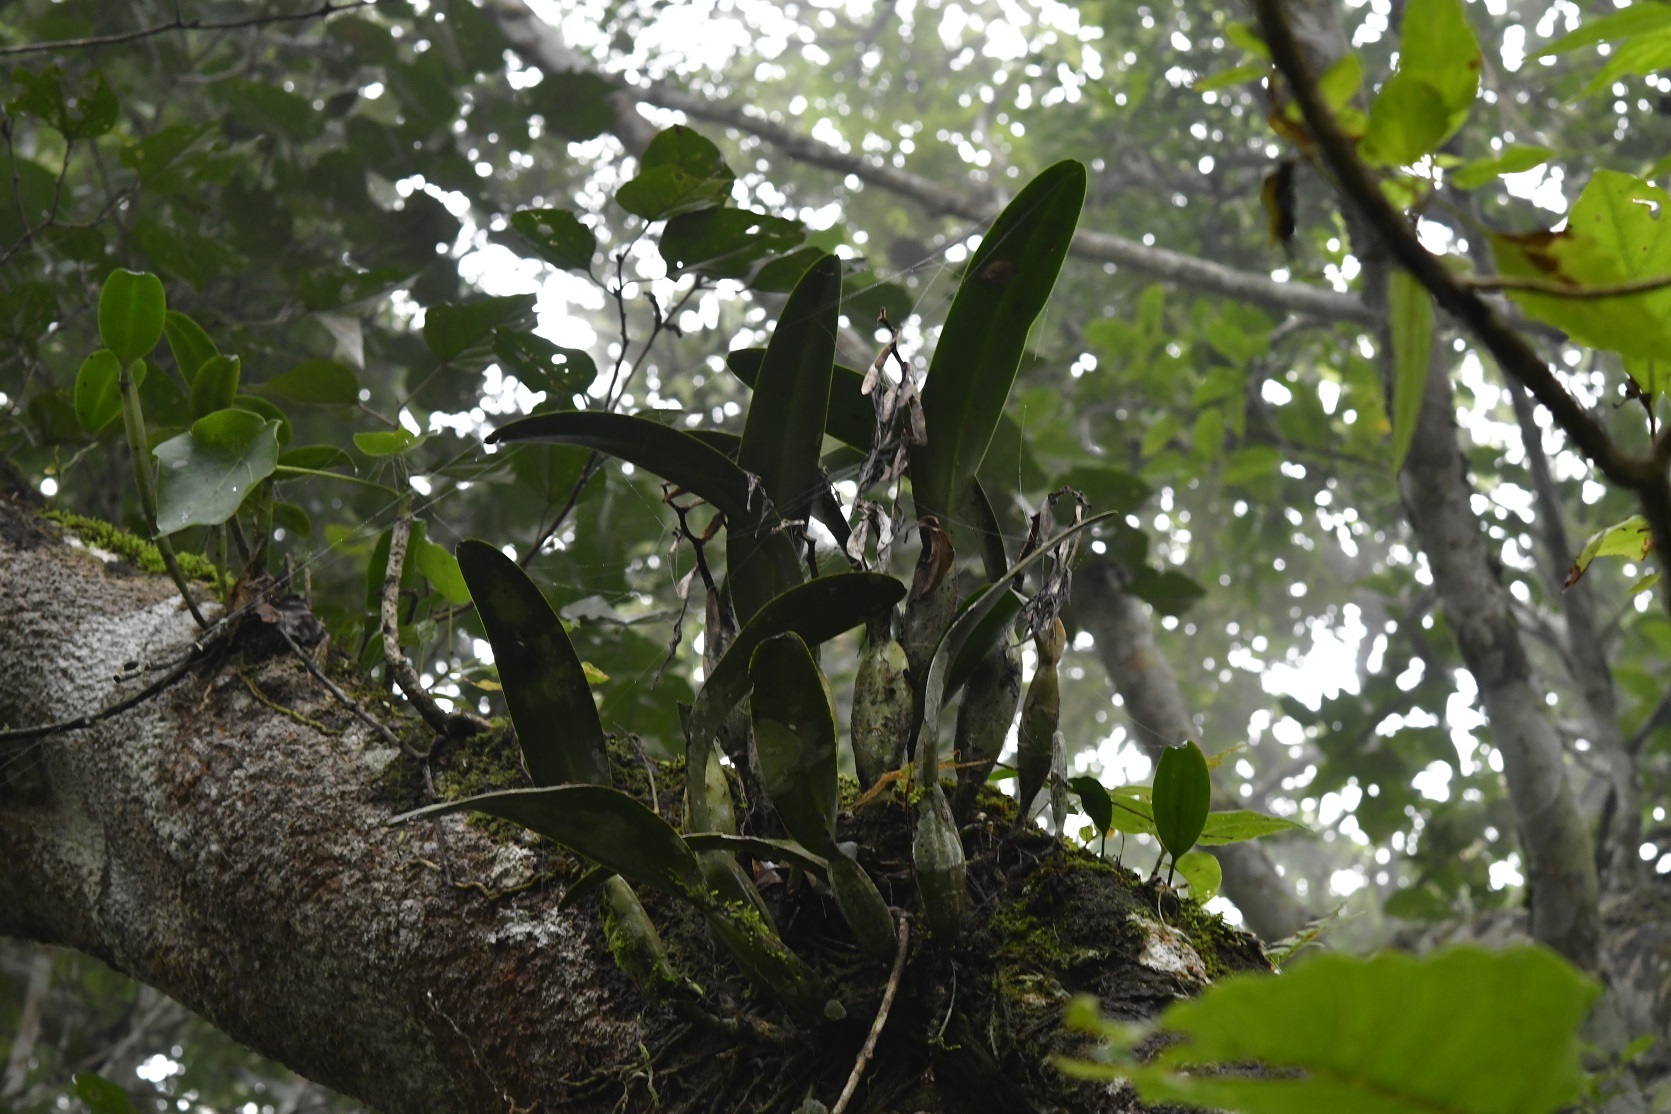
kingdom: Plantae
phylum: Tracheophyta
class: Liliopsida
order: Asparagales
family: Orchidaceae
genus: Epidendrum
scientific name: Epidendrum ciliare
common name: Eyelash orchid
